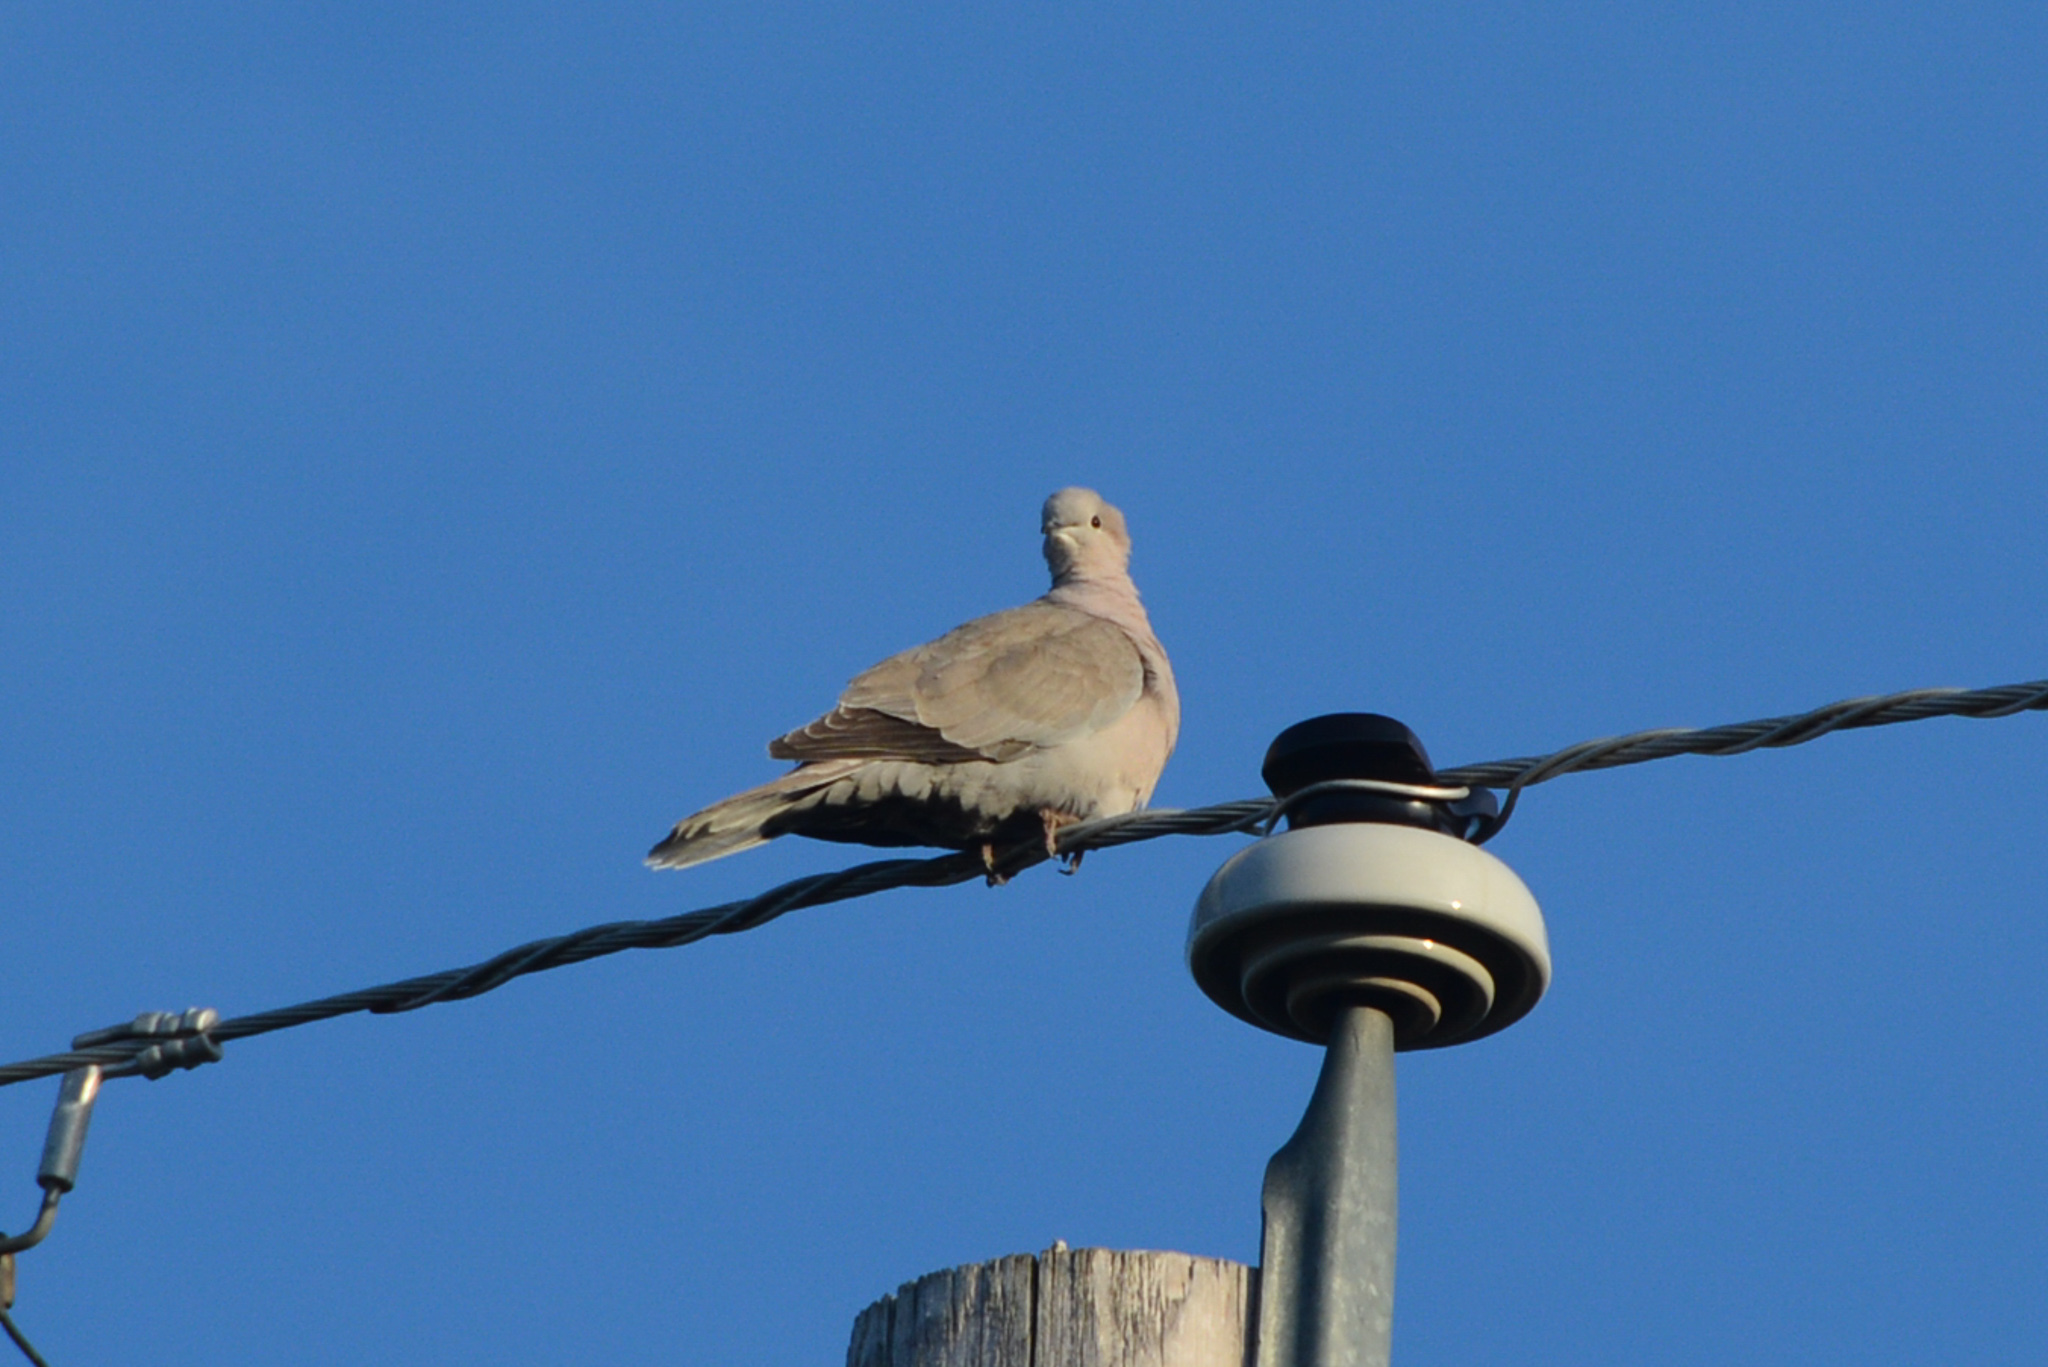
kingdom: Animalia
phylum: Chordata
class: Aves
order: Columbiformes
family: Columbidae
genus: Streptopelia
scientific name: Streptopelia decaocto
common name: Eurasian collared dove
